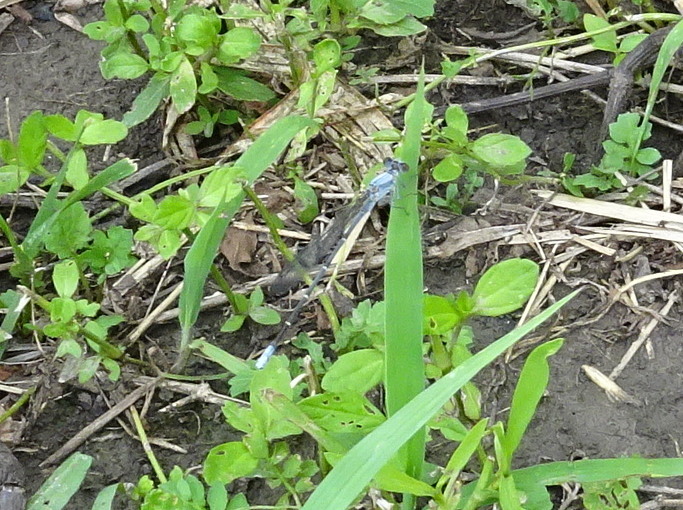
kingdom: Animalia
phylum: Arthropoda
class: Insecta
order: Odonata
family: Coenagrionidae
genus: Argia
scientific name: Argia moesta
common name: Powdered dancer
